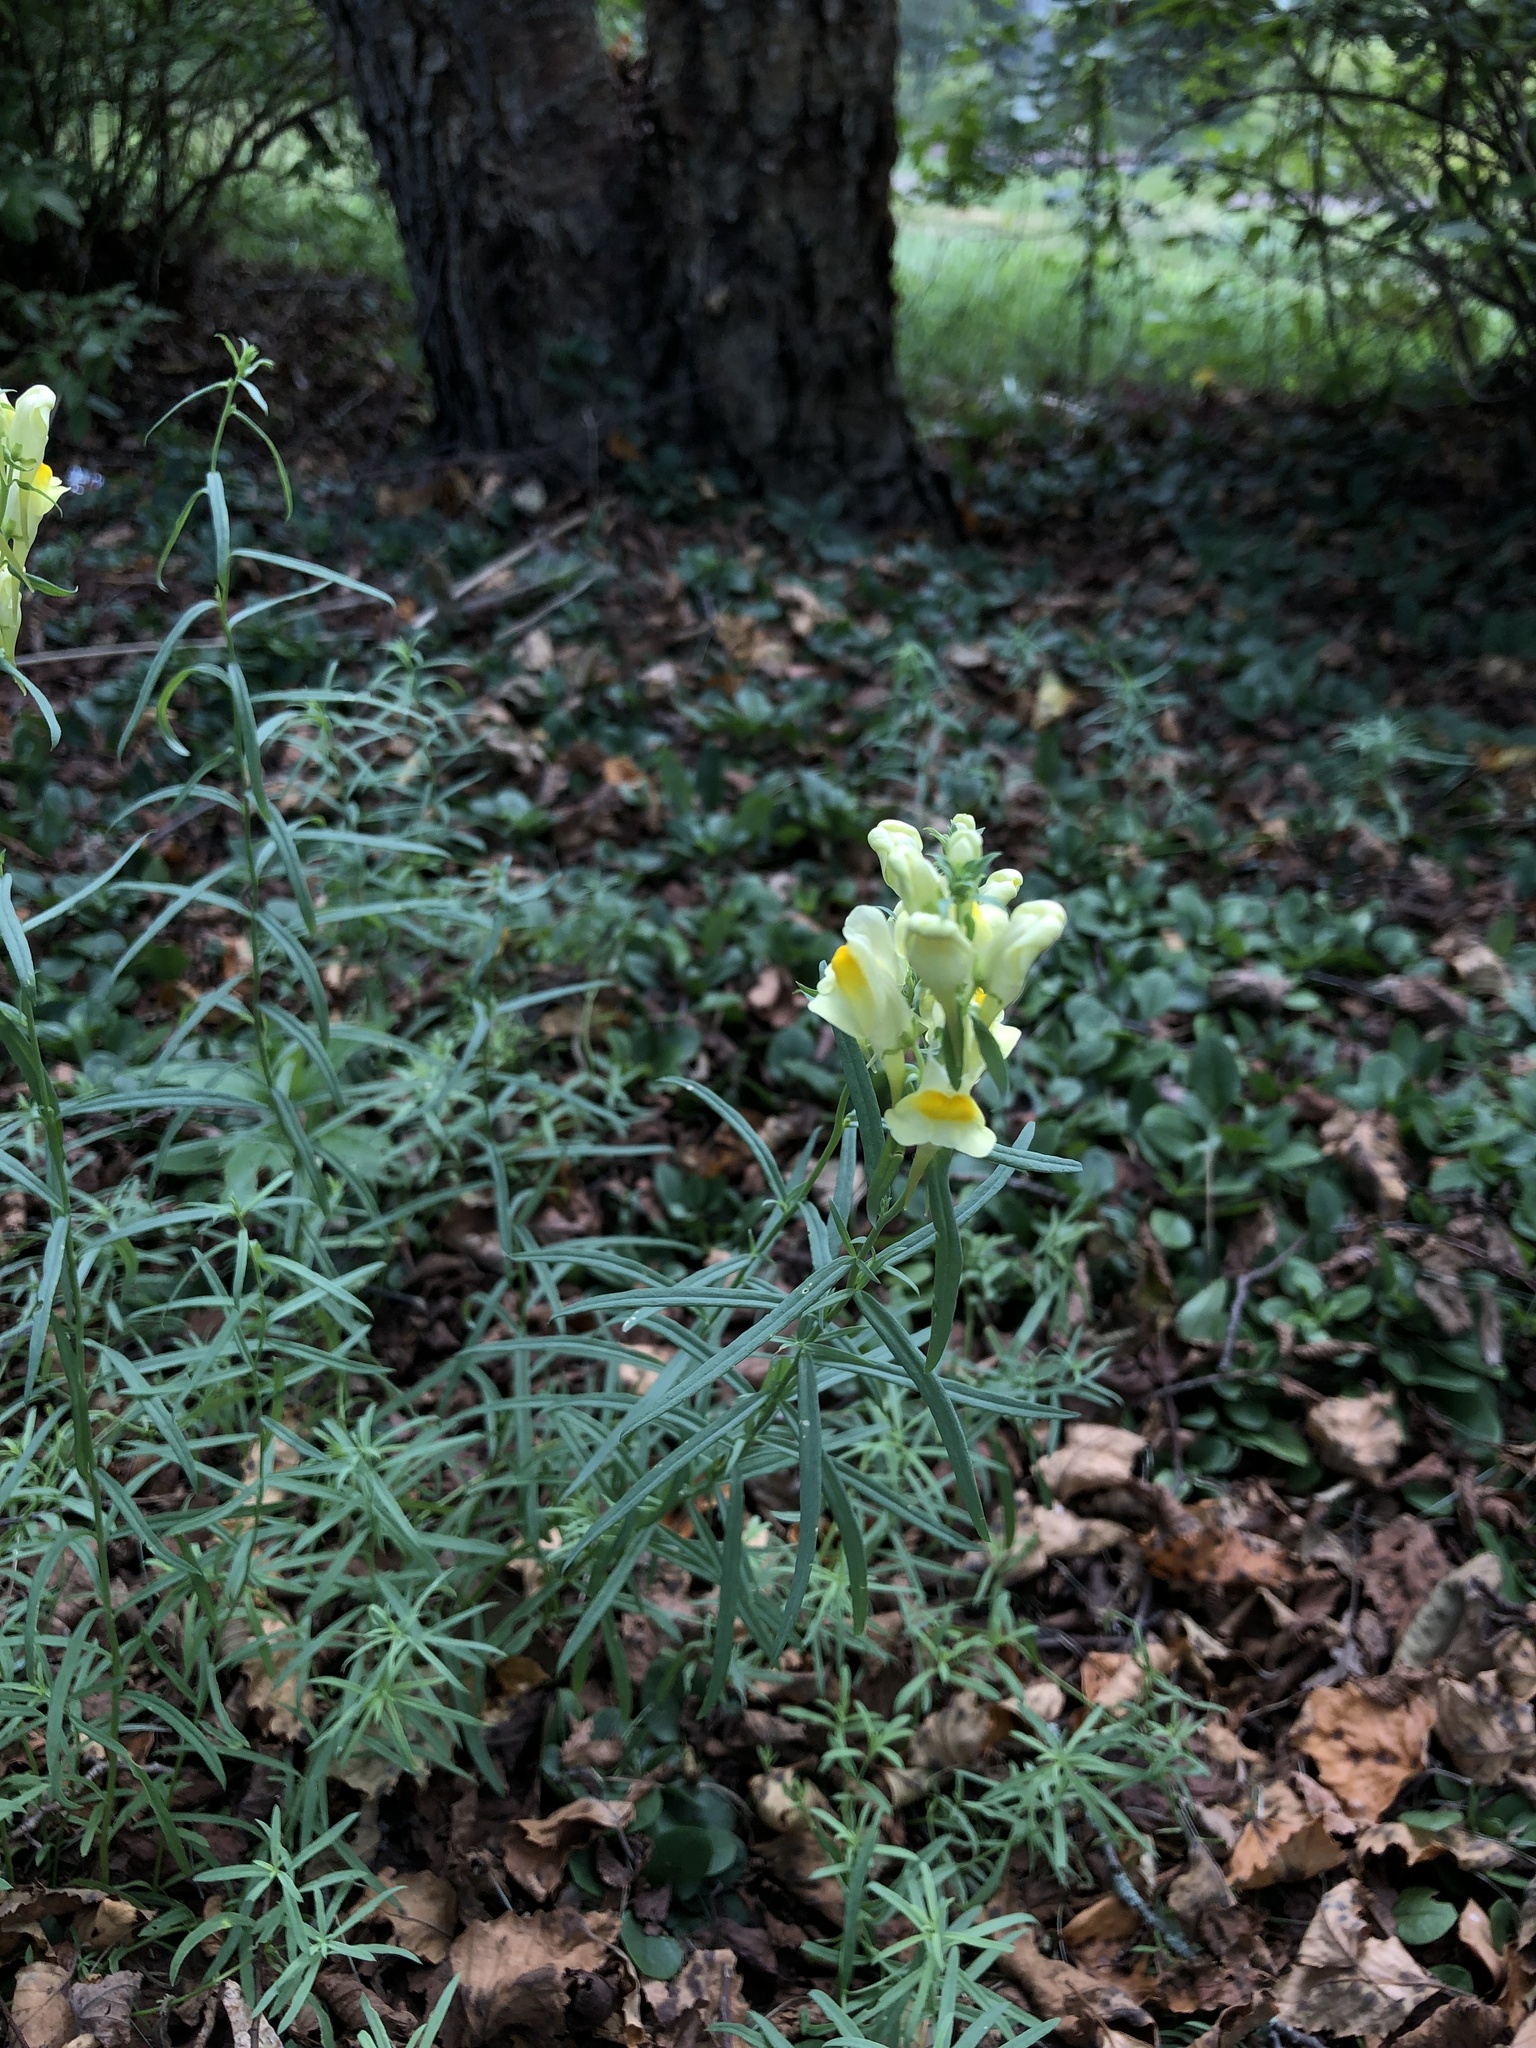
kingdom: Plantae
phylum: Tracheophyta
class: Magnoliopsida
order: Lamiales
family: Plantaginaceae
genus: Linaria
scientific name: Linaria vulgaris
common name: Butter and eggs
